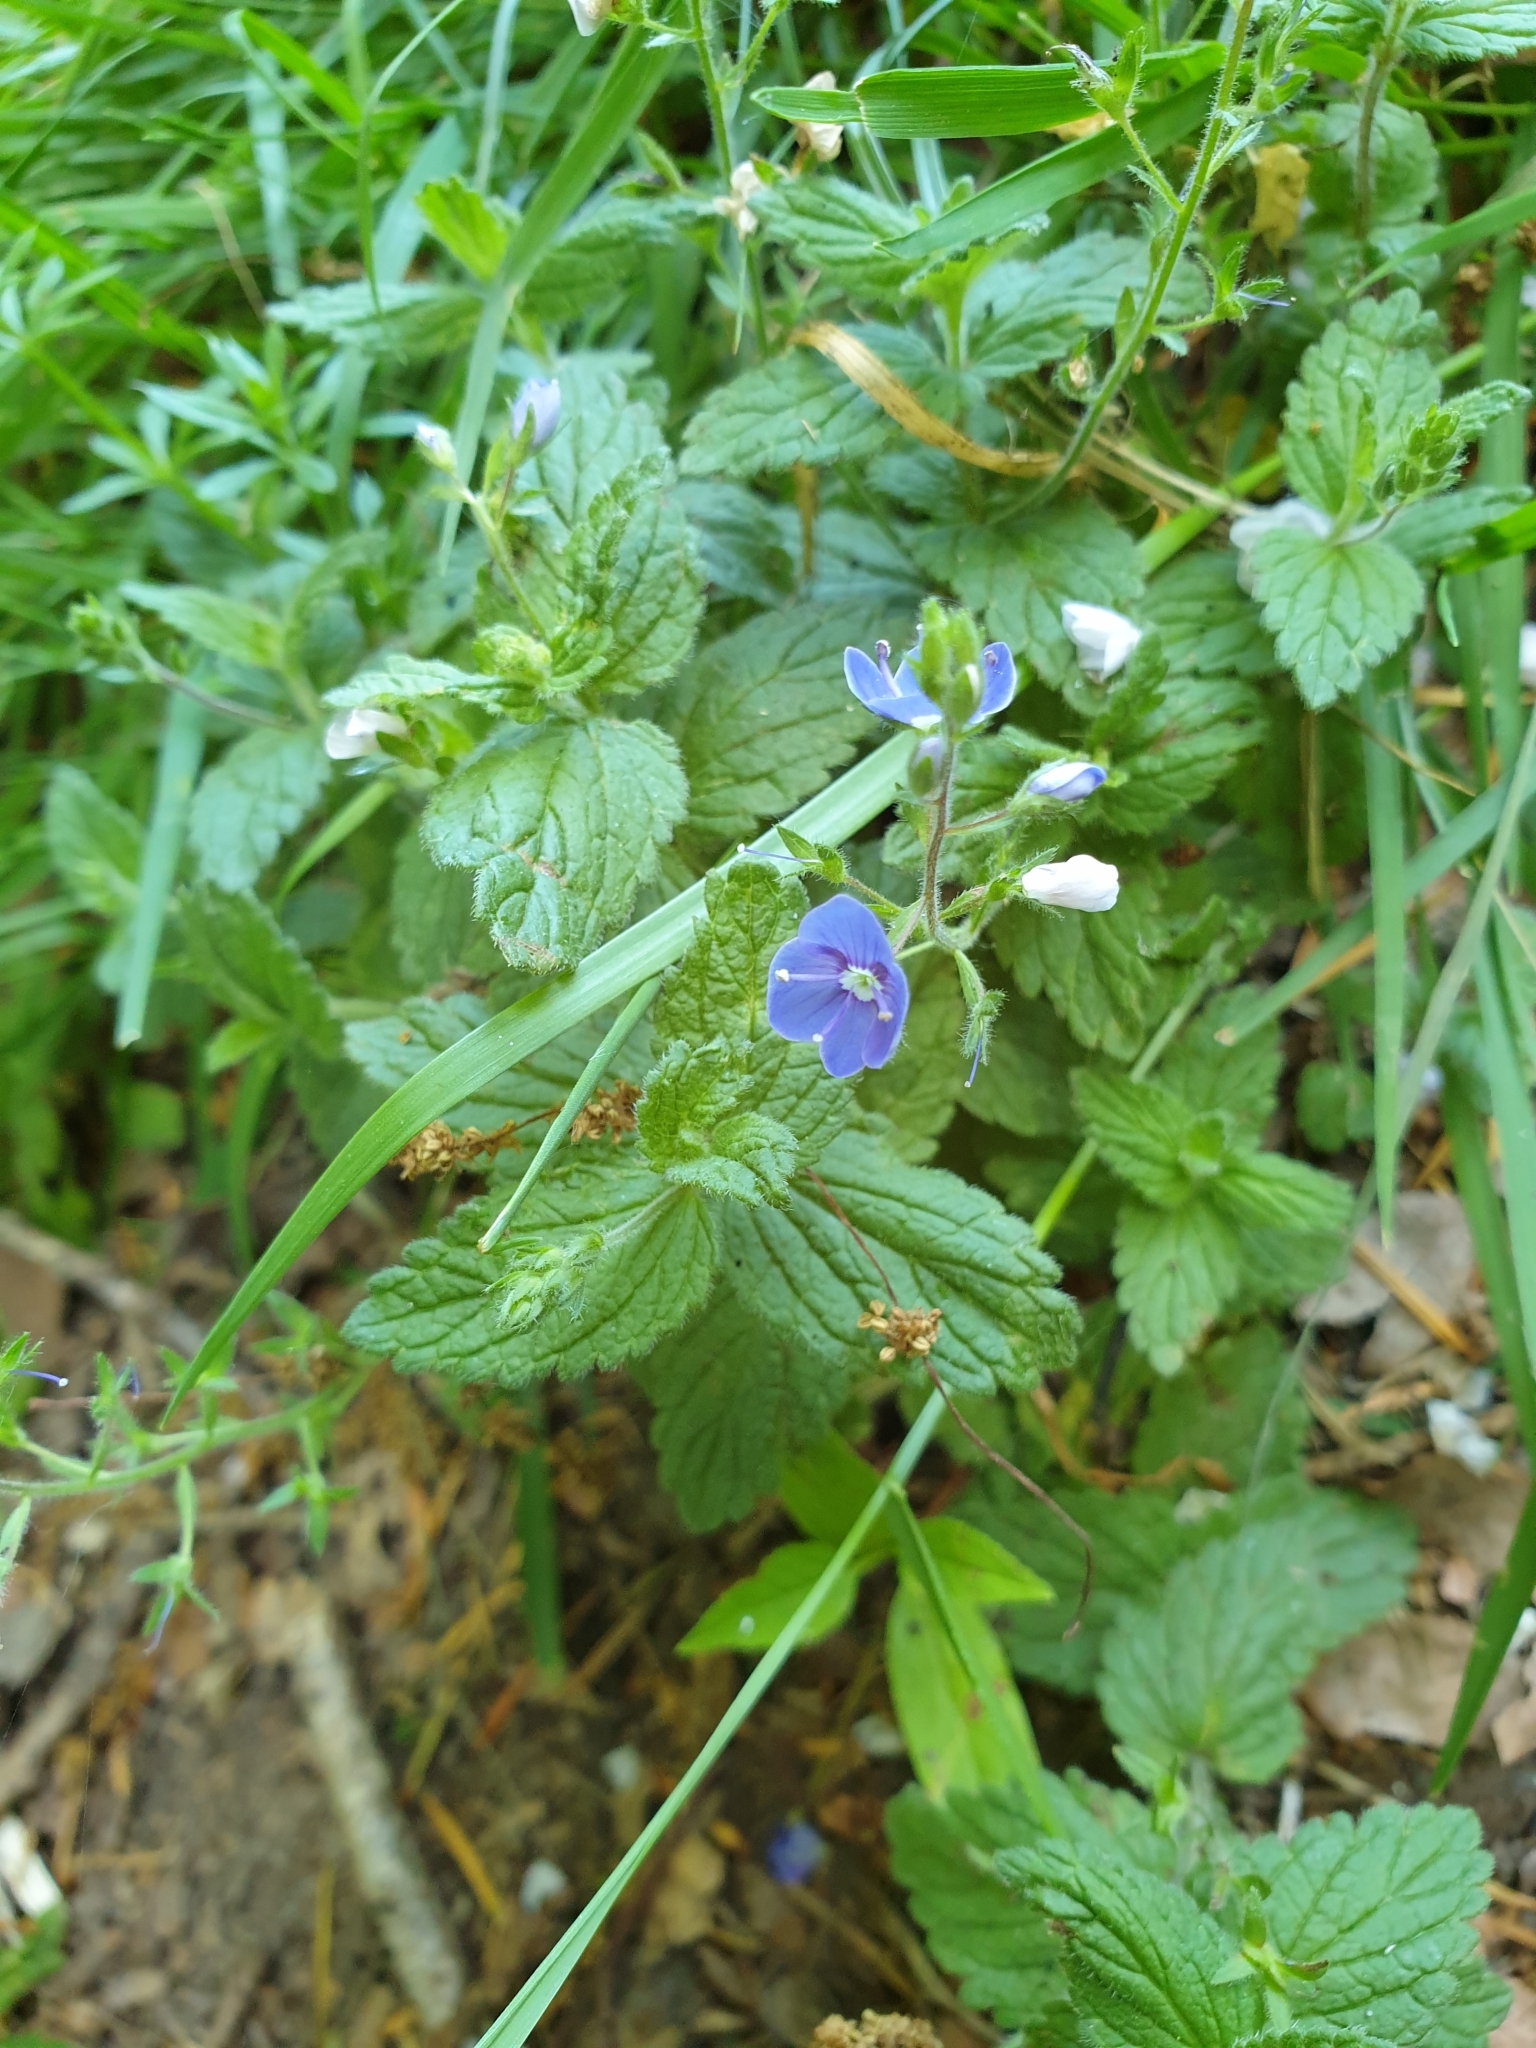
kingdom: Plantae
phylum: Tracheophyta
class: Magnoliopsida
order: Lamiales
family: Plantaginaceae
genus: Veronica
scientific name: Veronica chamaedrys
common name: Germander speedwell
